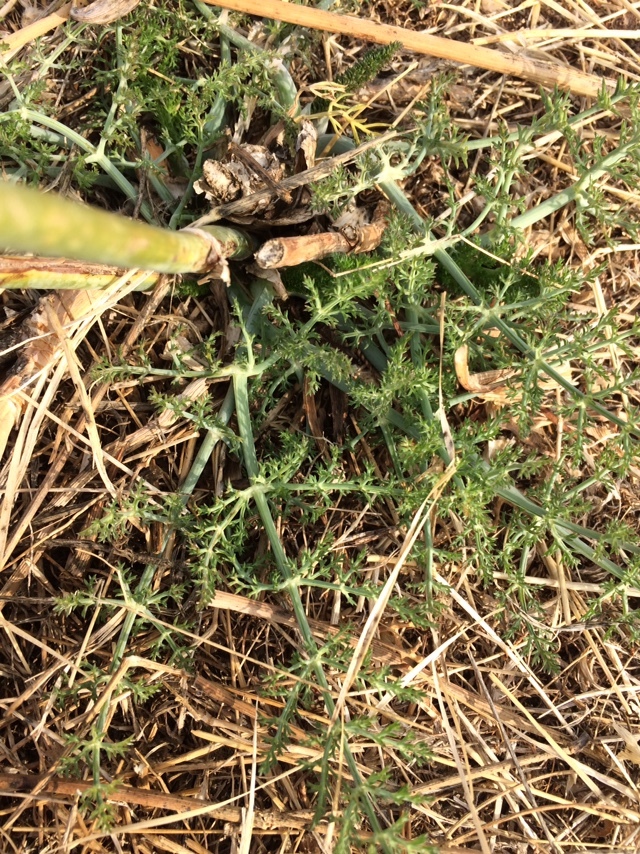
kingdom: Plantae
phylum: Tracheophyta
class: Magnoliopsida
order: Apiales
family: Apiaceae
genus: Foeniculum
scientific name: Foeniculum vulgare
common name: Fennel
